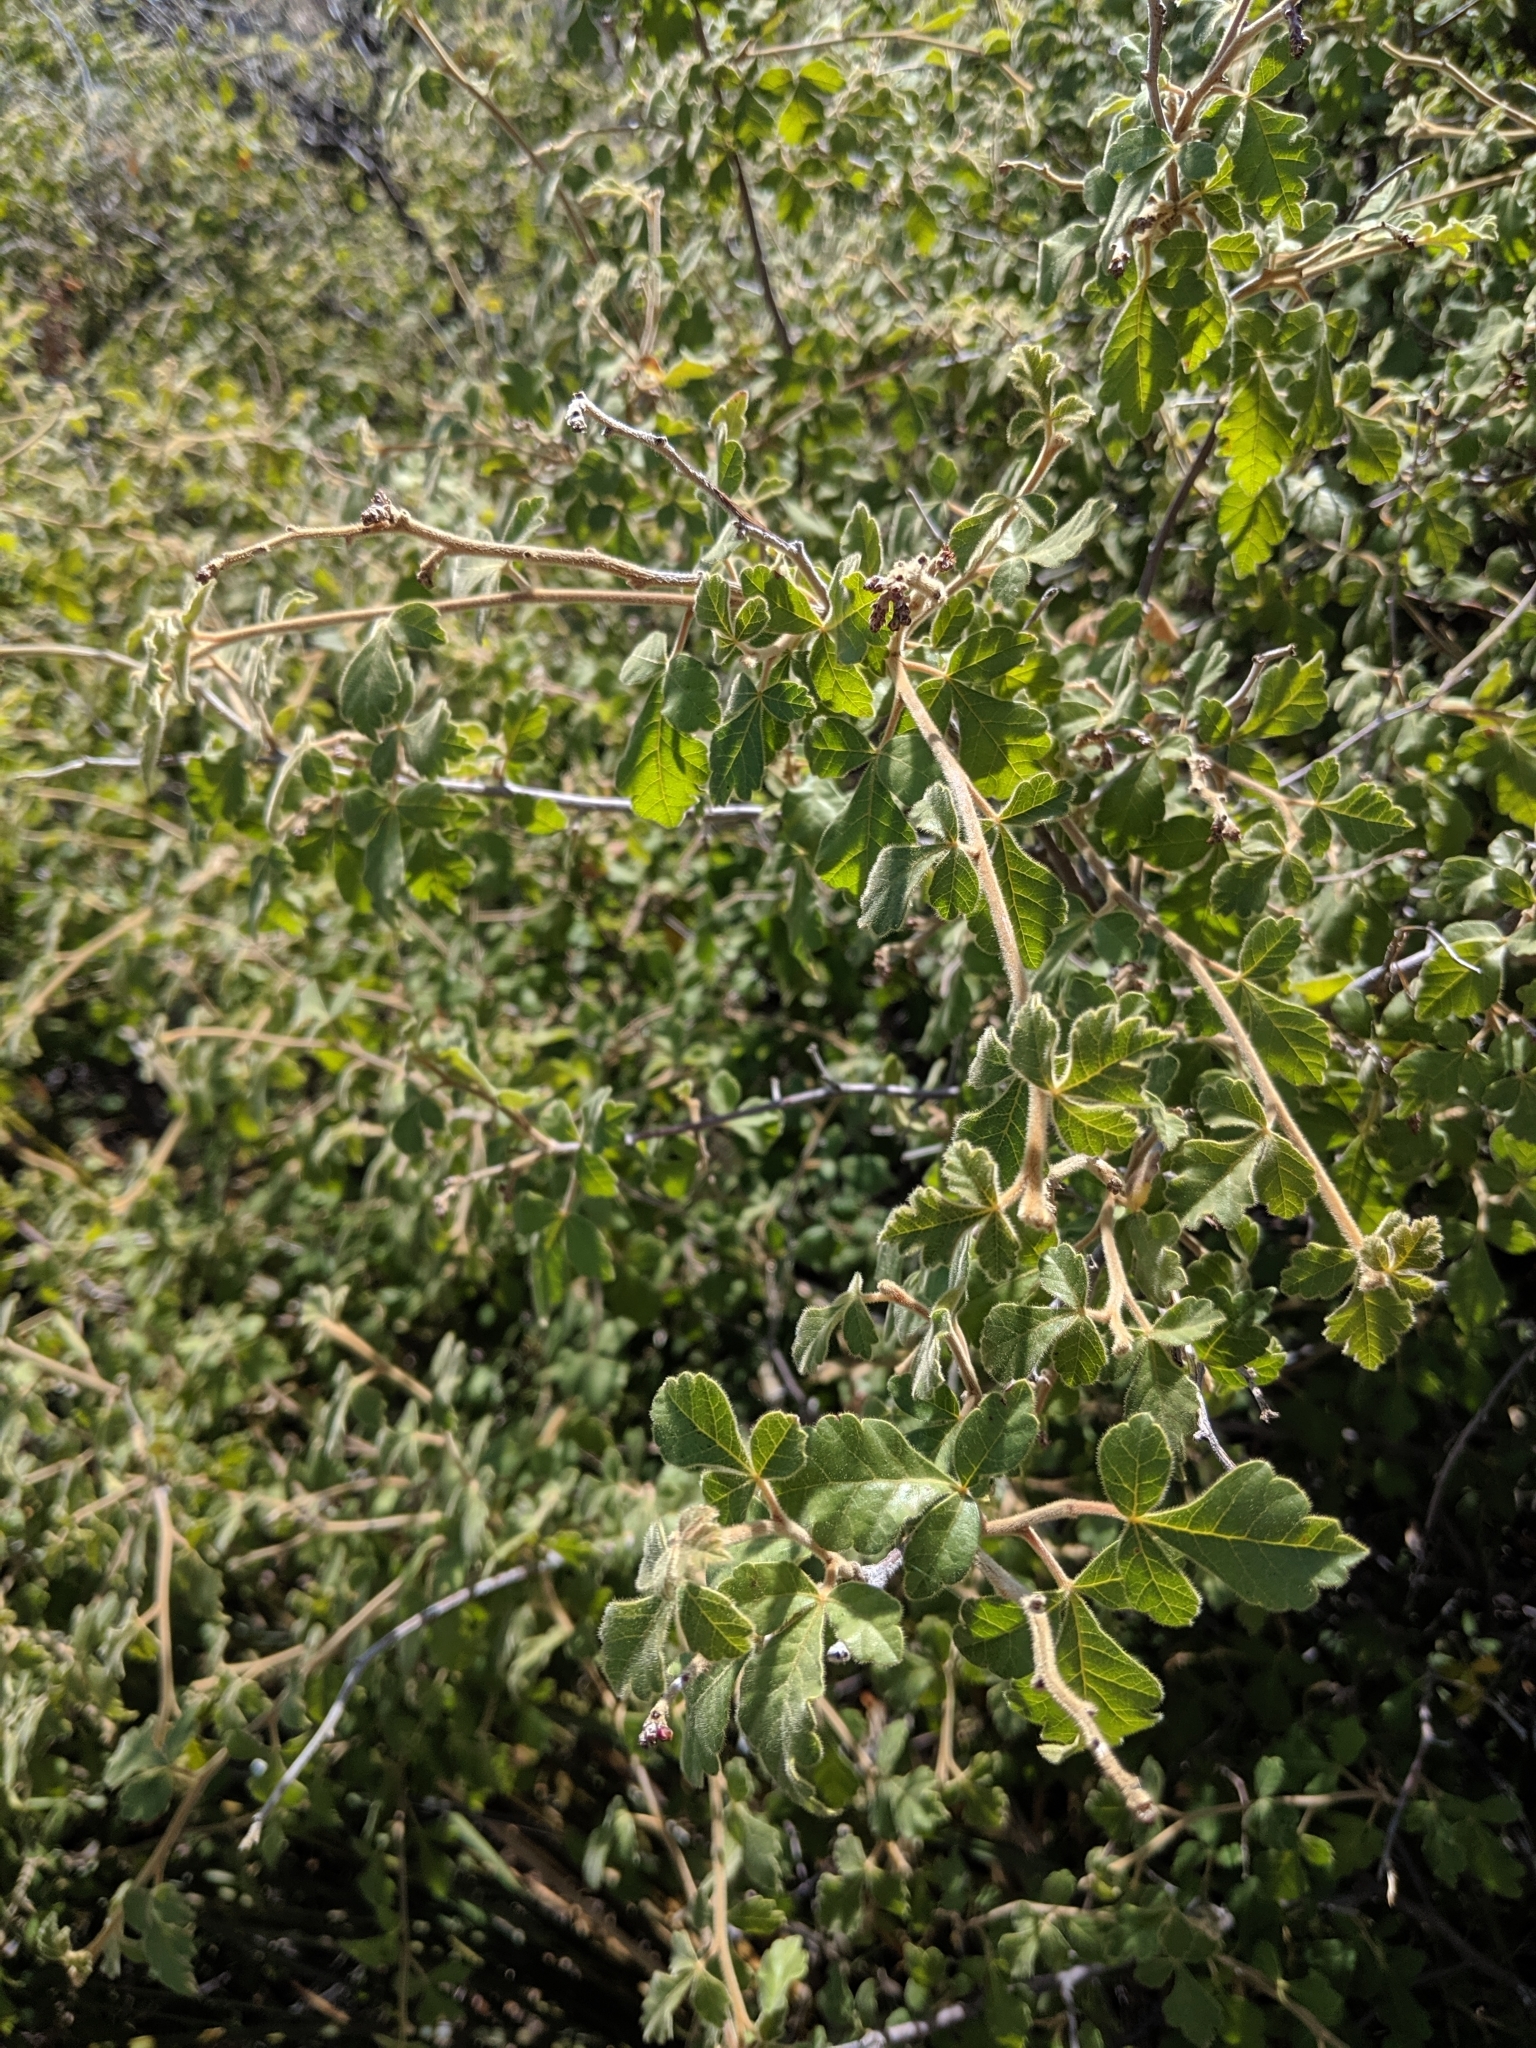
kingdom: Plantae
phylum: Tracheophyta
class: Magnoliopsida
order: Sapindales
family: Anacardiaceae
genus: Rhus
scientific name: Rhus aromatica
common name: Aromatic sumac
